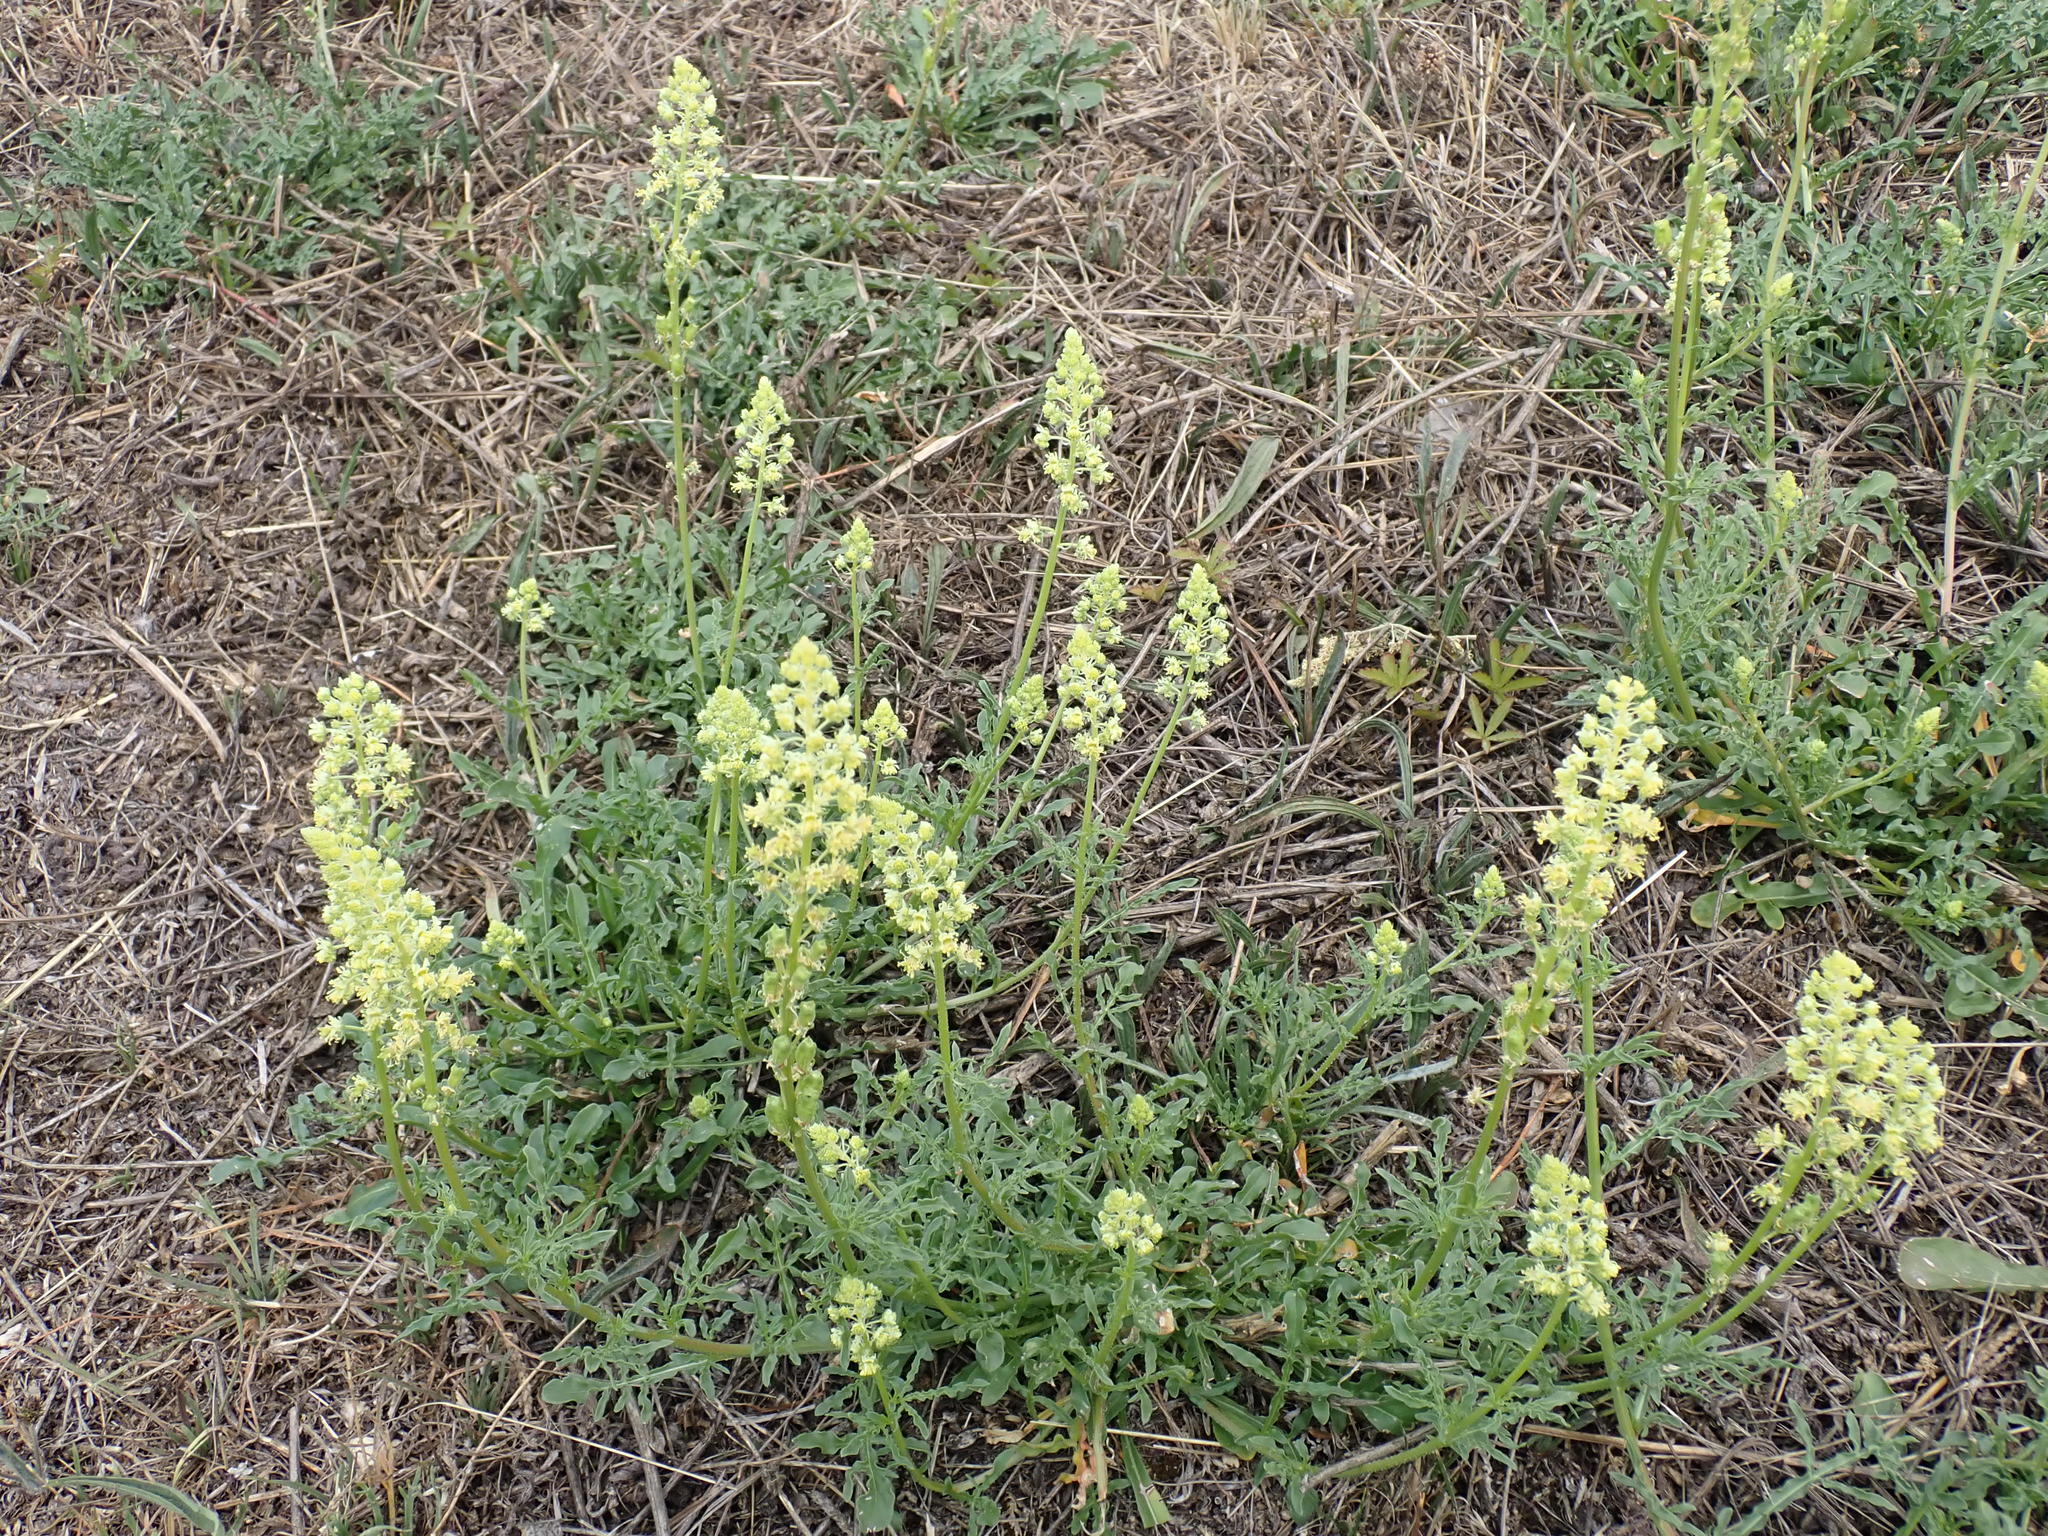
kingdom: Plantae
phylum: Tracheophyta
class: Magnoliopsida
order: Brassicales
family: Resedaceae
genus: Reseda
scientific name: Reseda lutea
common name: Wild mignonette
